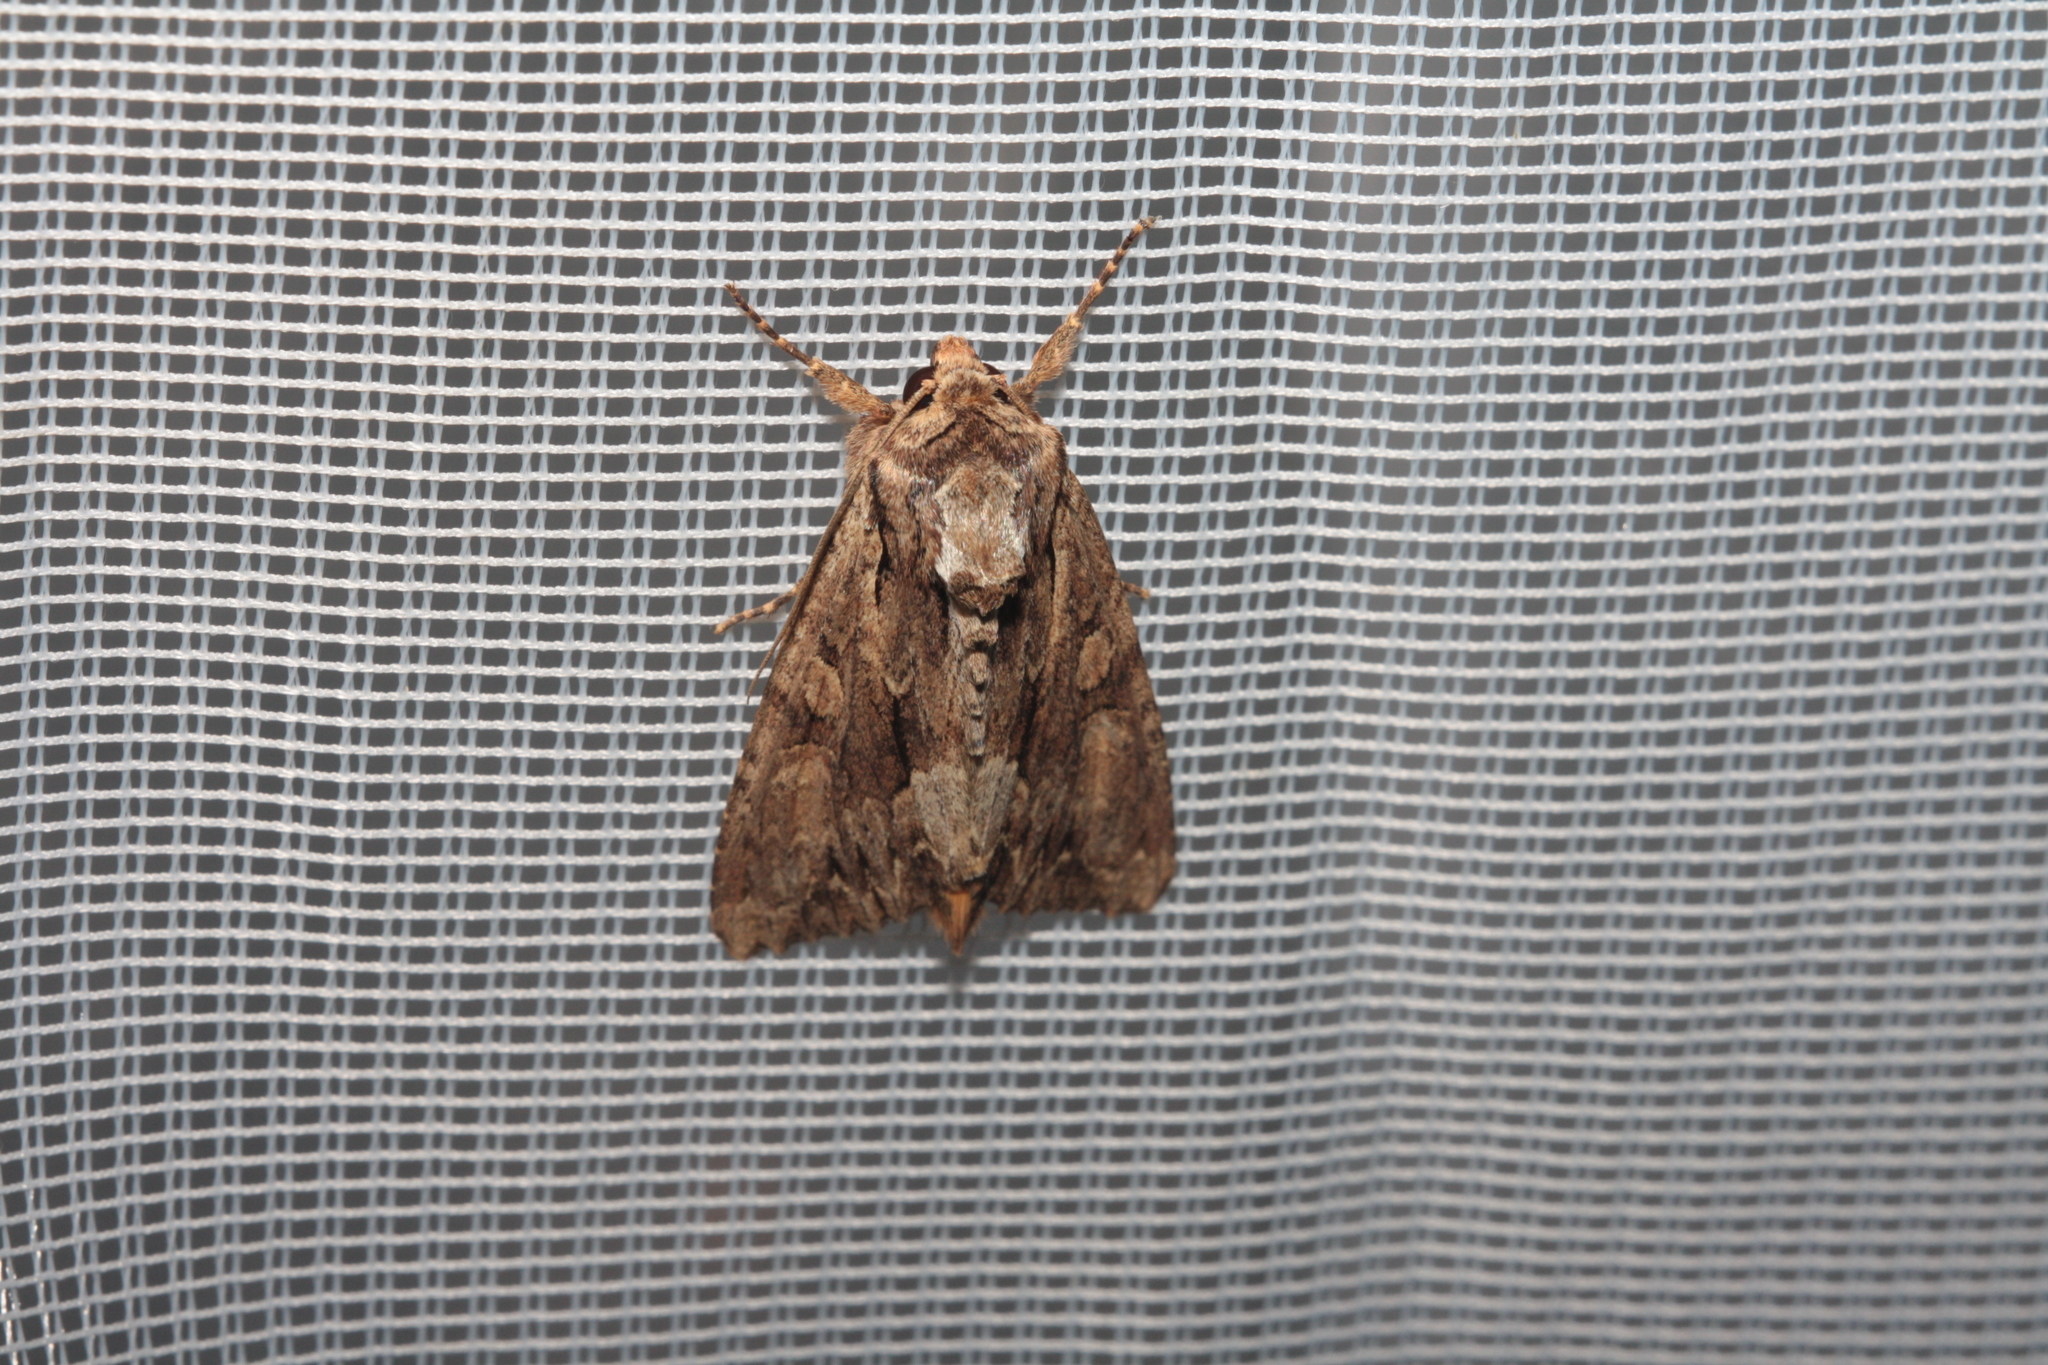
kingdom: Animalia
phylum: Arthropoda
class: Insecta
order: Lepidoptera
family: Noctuidae
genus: Apamea
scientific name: Apamea monoglypha
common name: Dark arches
